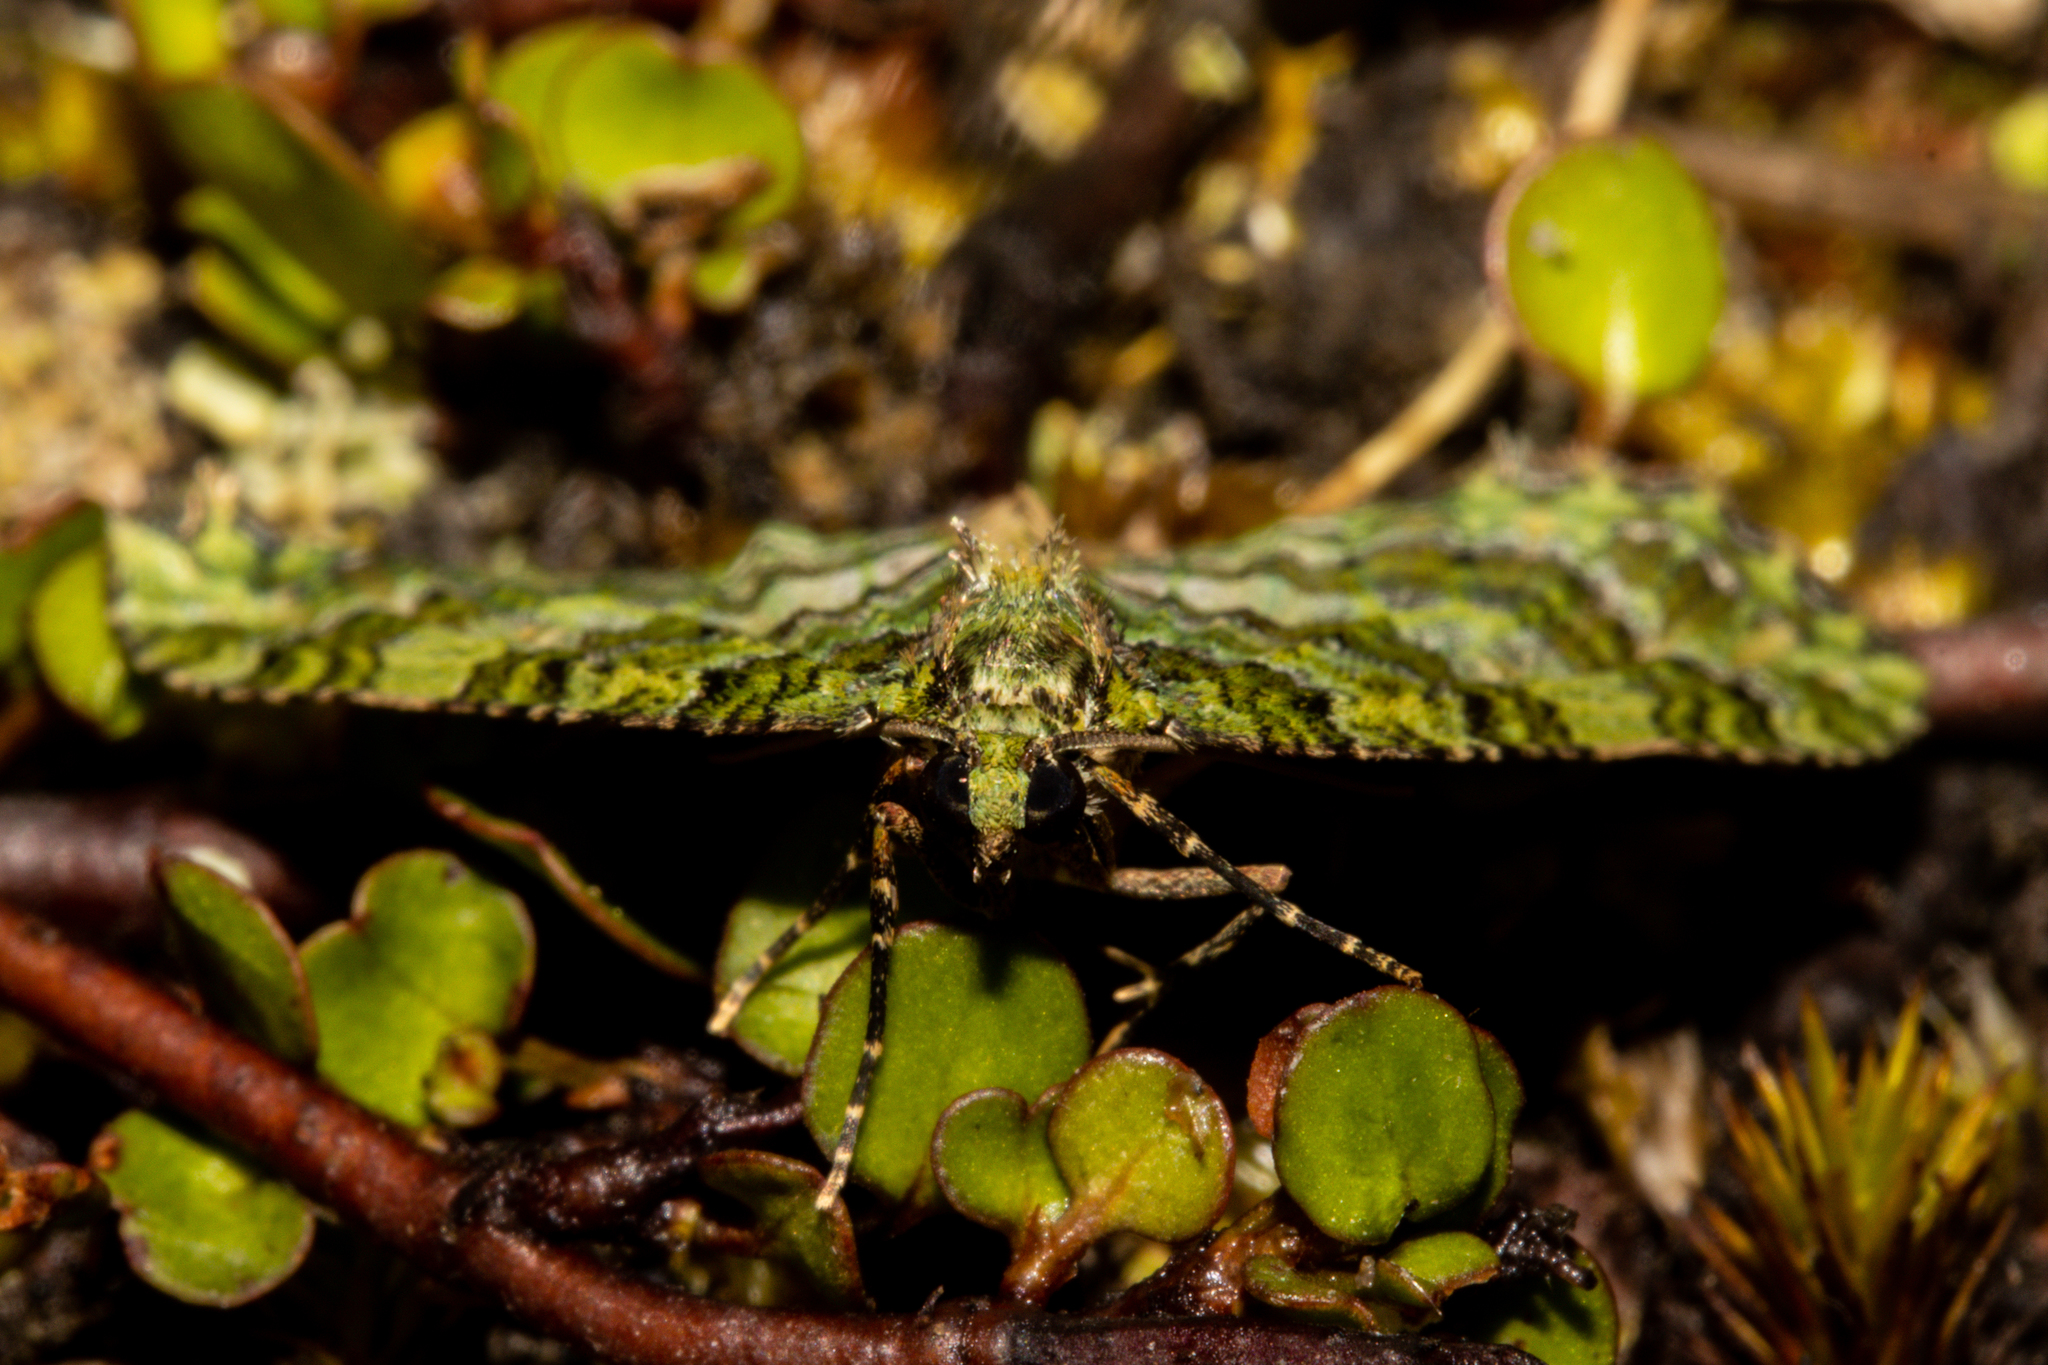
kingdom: Animalia
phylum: Arthropoda
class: Insecta
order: Lepidoptera
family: Geometridae
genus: Austrocidaria
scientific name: Austrocidaria similata
